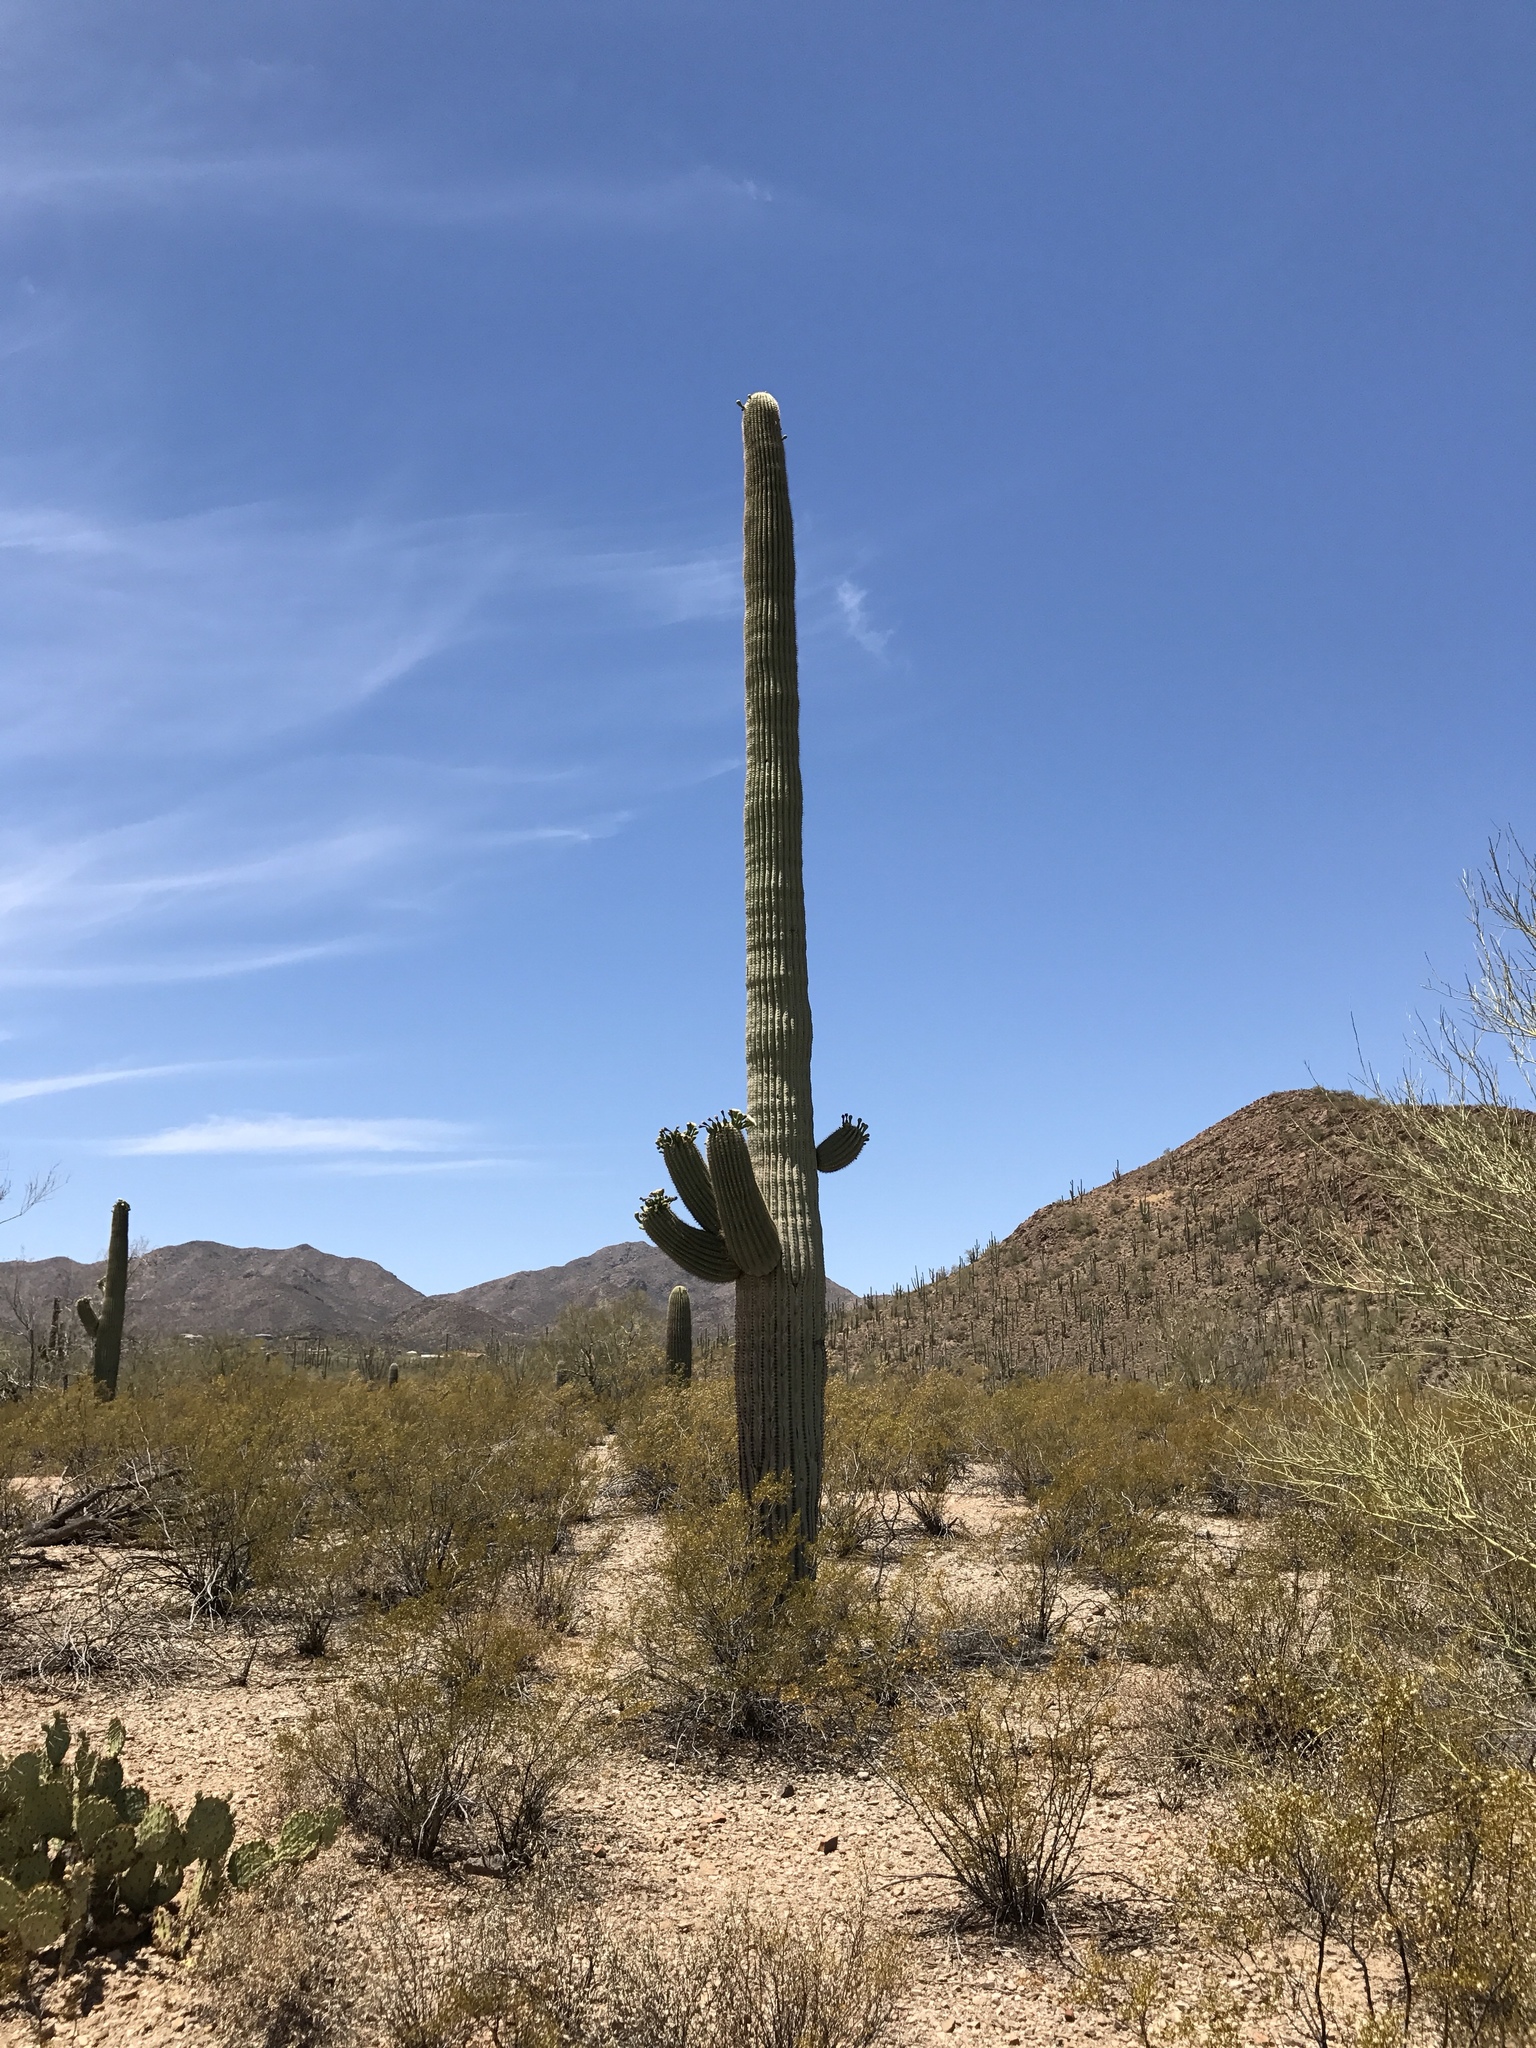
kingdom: Plantae
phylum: Tracheophyta
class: Magnoliopsida
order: Caryophyllales
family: Cactaceae
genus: Carnegiea
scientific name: Carnegiea gigantea
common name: Saguaro
